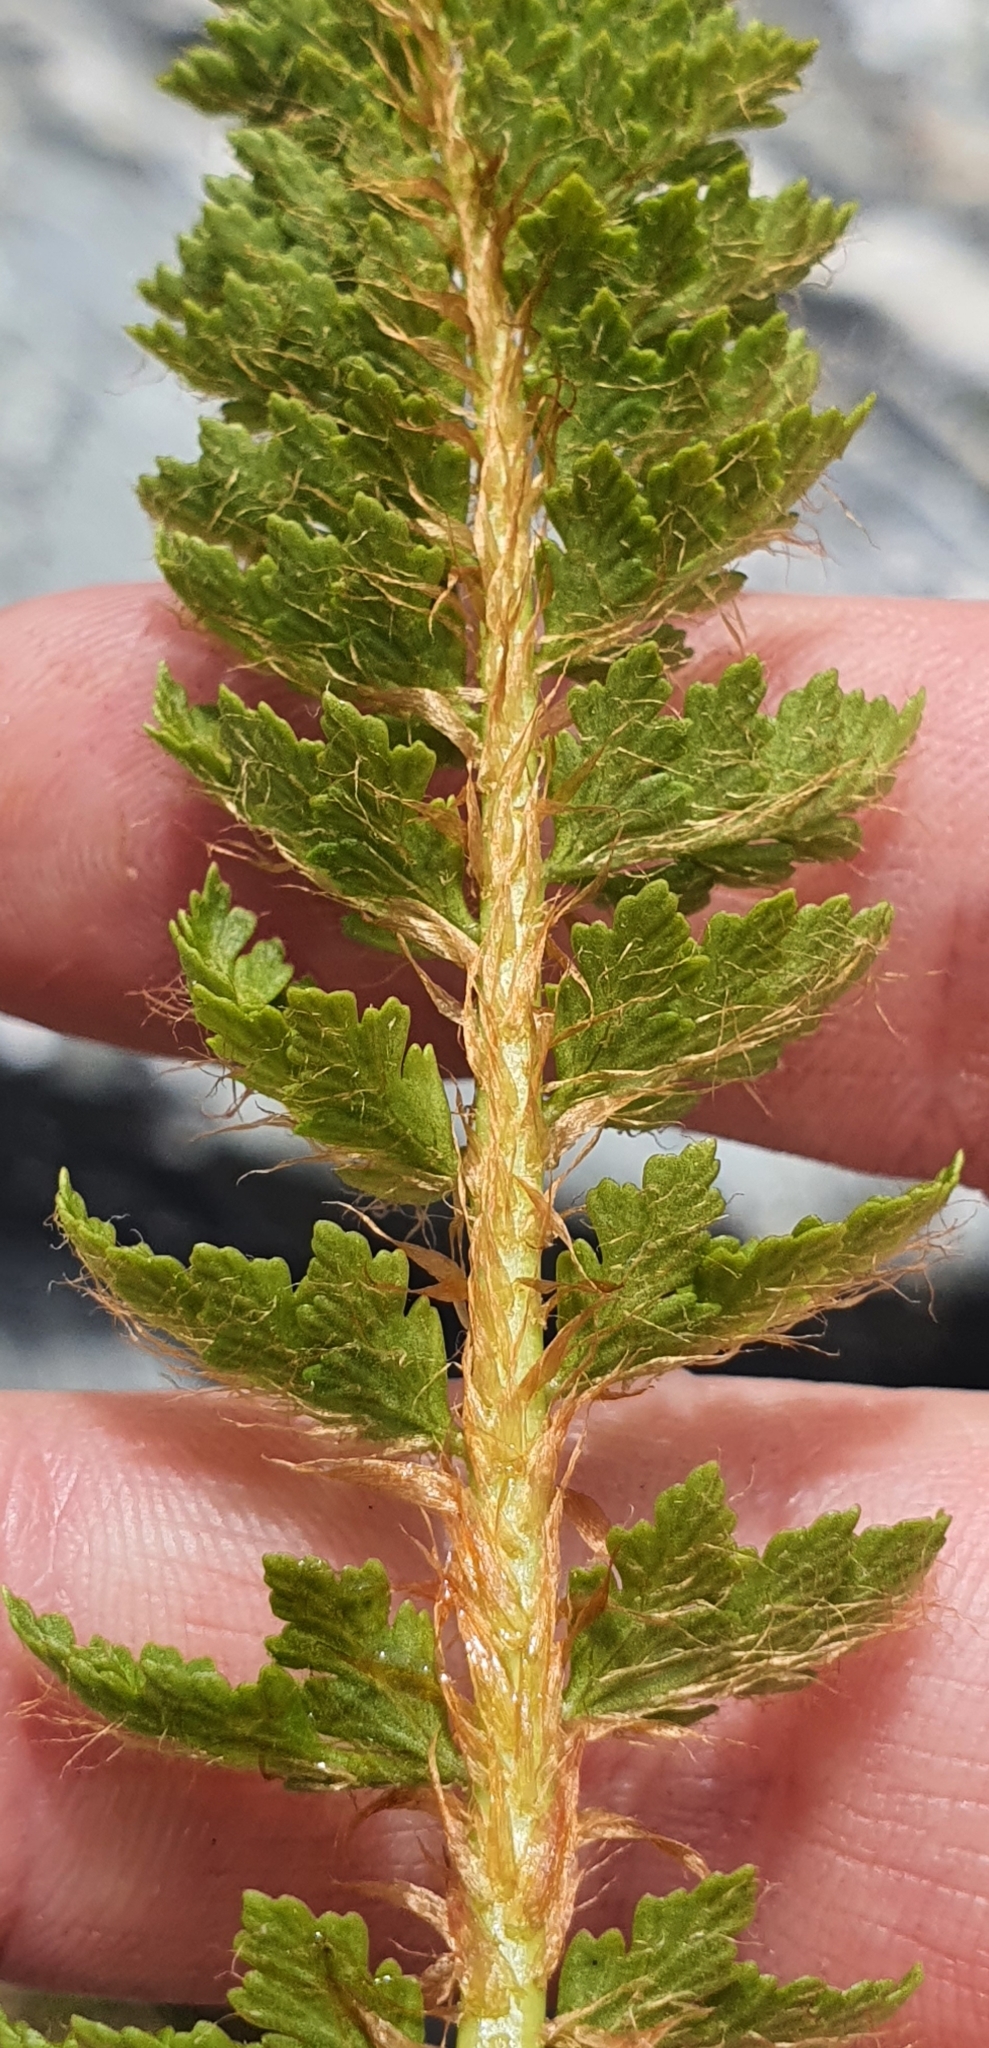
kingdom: Plantae
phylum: Tracheophyta
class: Polypodiopsida
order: Polypodiales
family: Dryopteridaceae
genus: Polystichum
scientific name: Polystichum cystostegia
